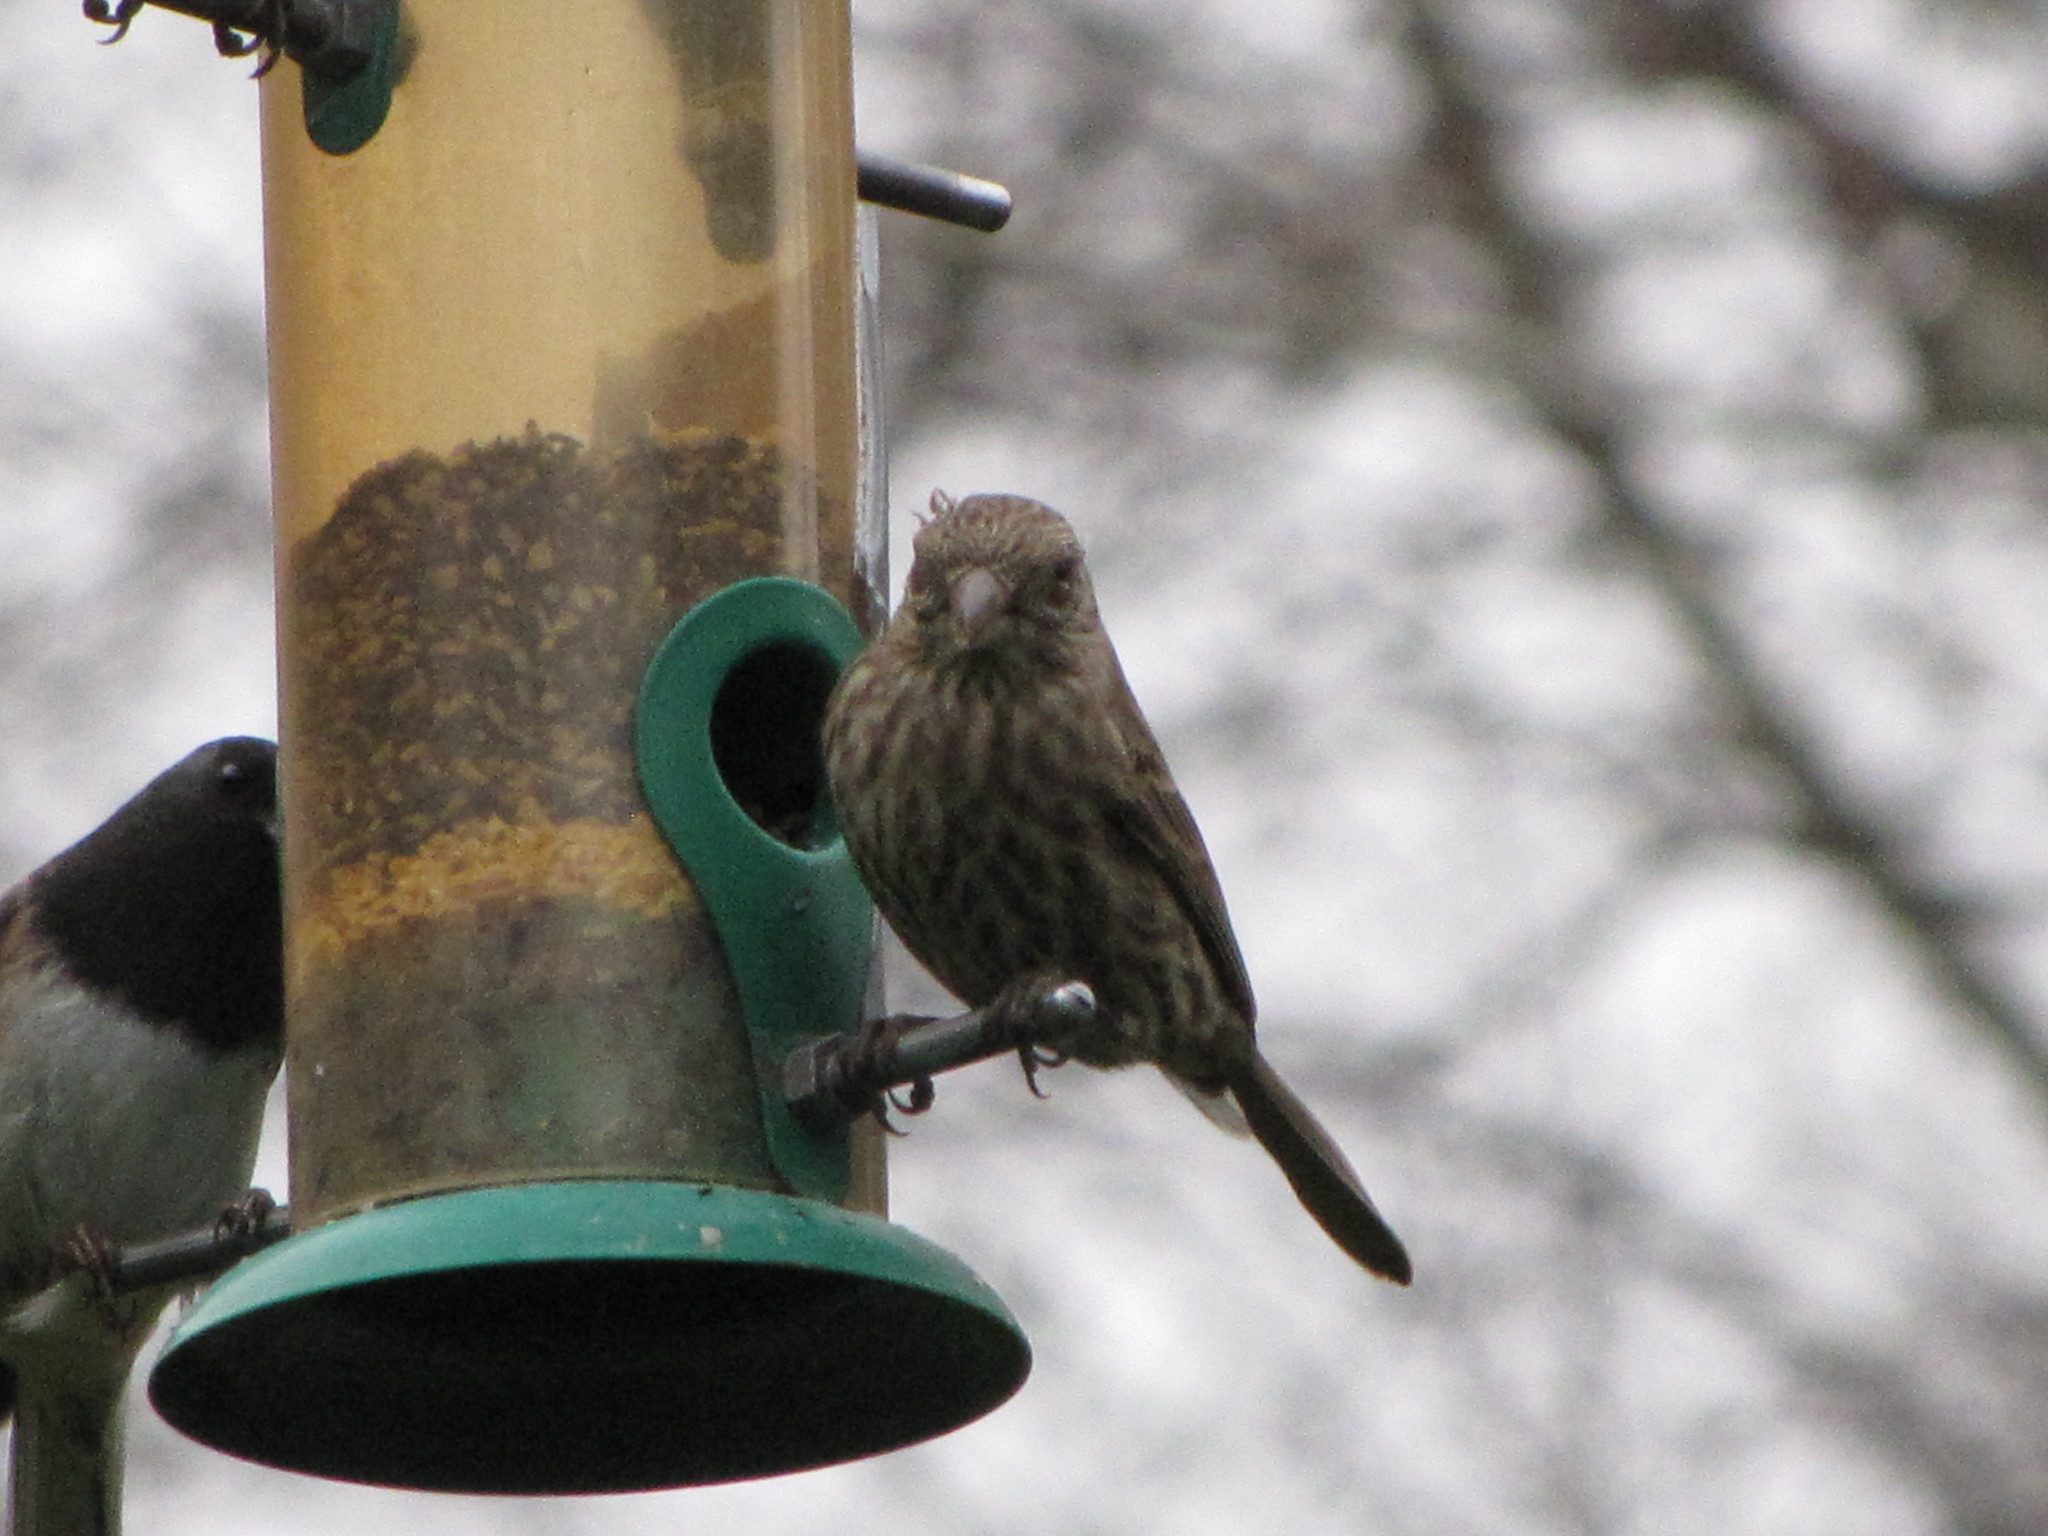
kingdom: Animalia
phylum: Chordata
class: Aves
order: Passeriformes
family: Fringillidae
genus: Haemorhous
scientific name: Haemorhous mexicanus
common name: House finch
